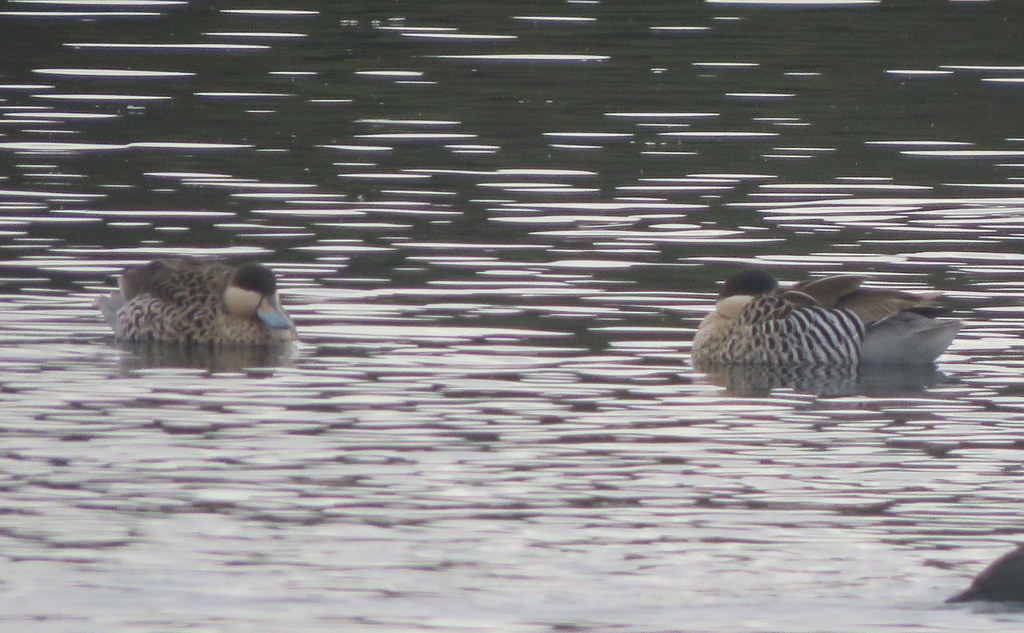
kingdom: Animalia
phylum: Chordata
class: Aves
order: Anseriformes
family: Anatidae
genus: Spatula
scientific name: Spatula versicolor
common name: Silver teal
